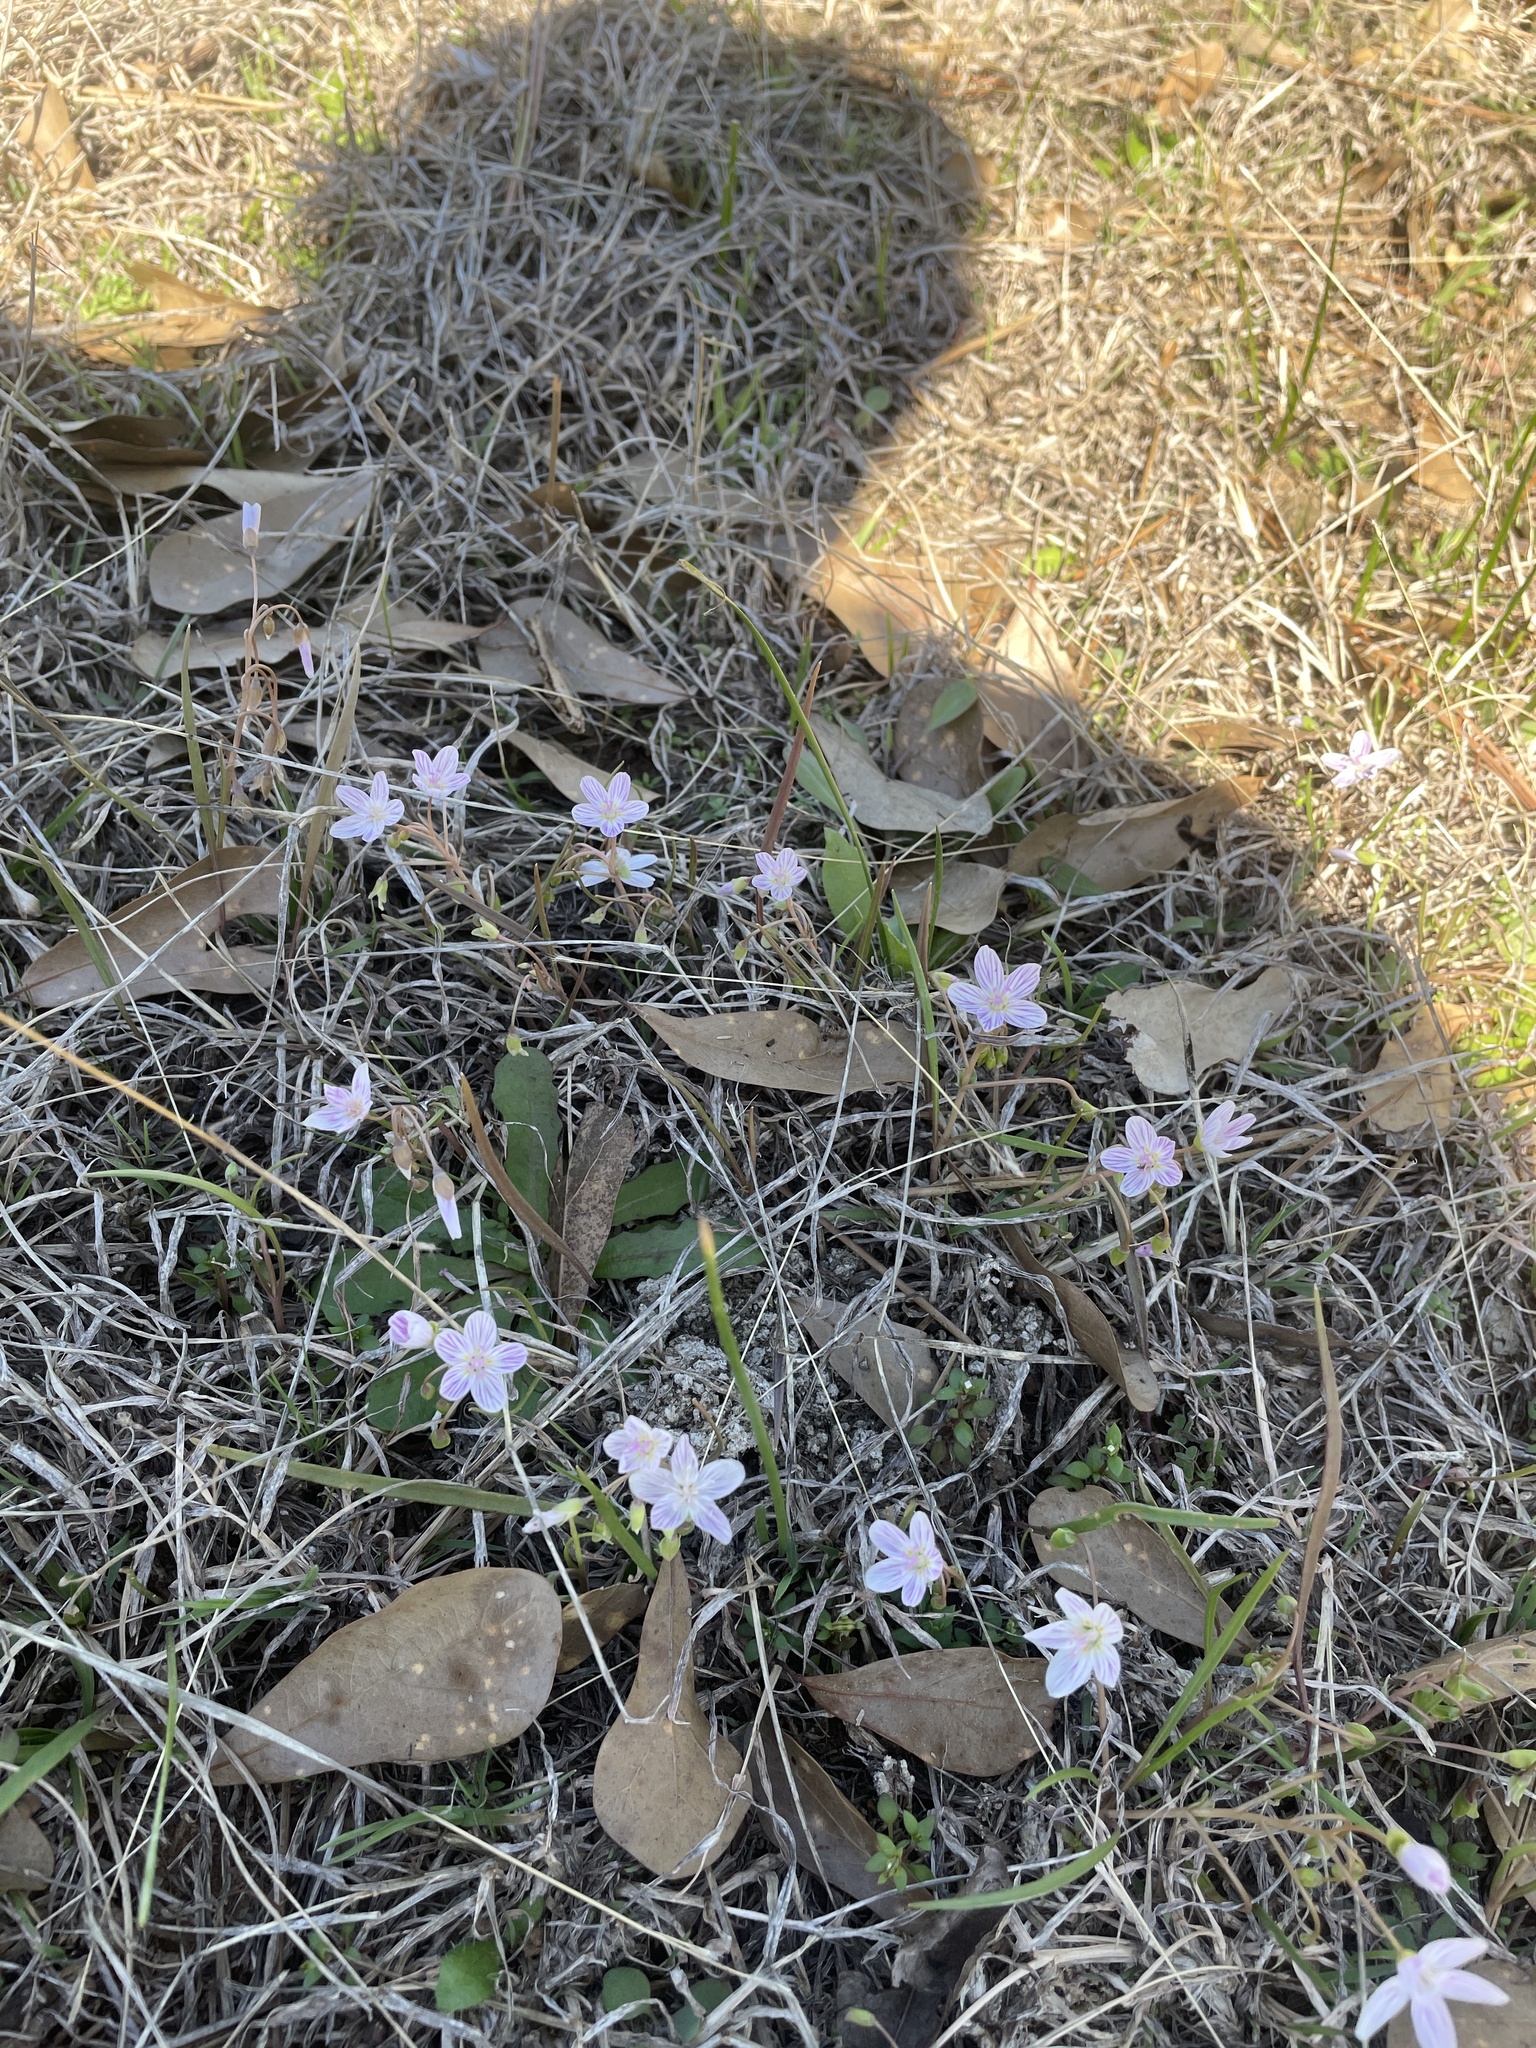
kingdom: Plantae
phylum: Tracheophyta
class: Magnoliopsida
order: Caryophyllales
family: Montiaceae
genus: Claytonia
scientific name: Claytonia virginica
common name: Virginia springbeauty
